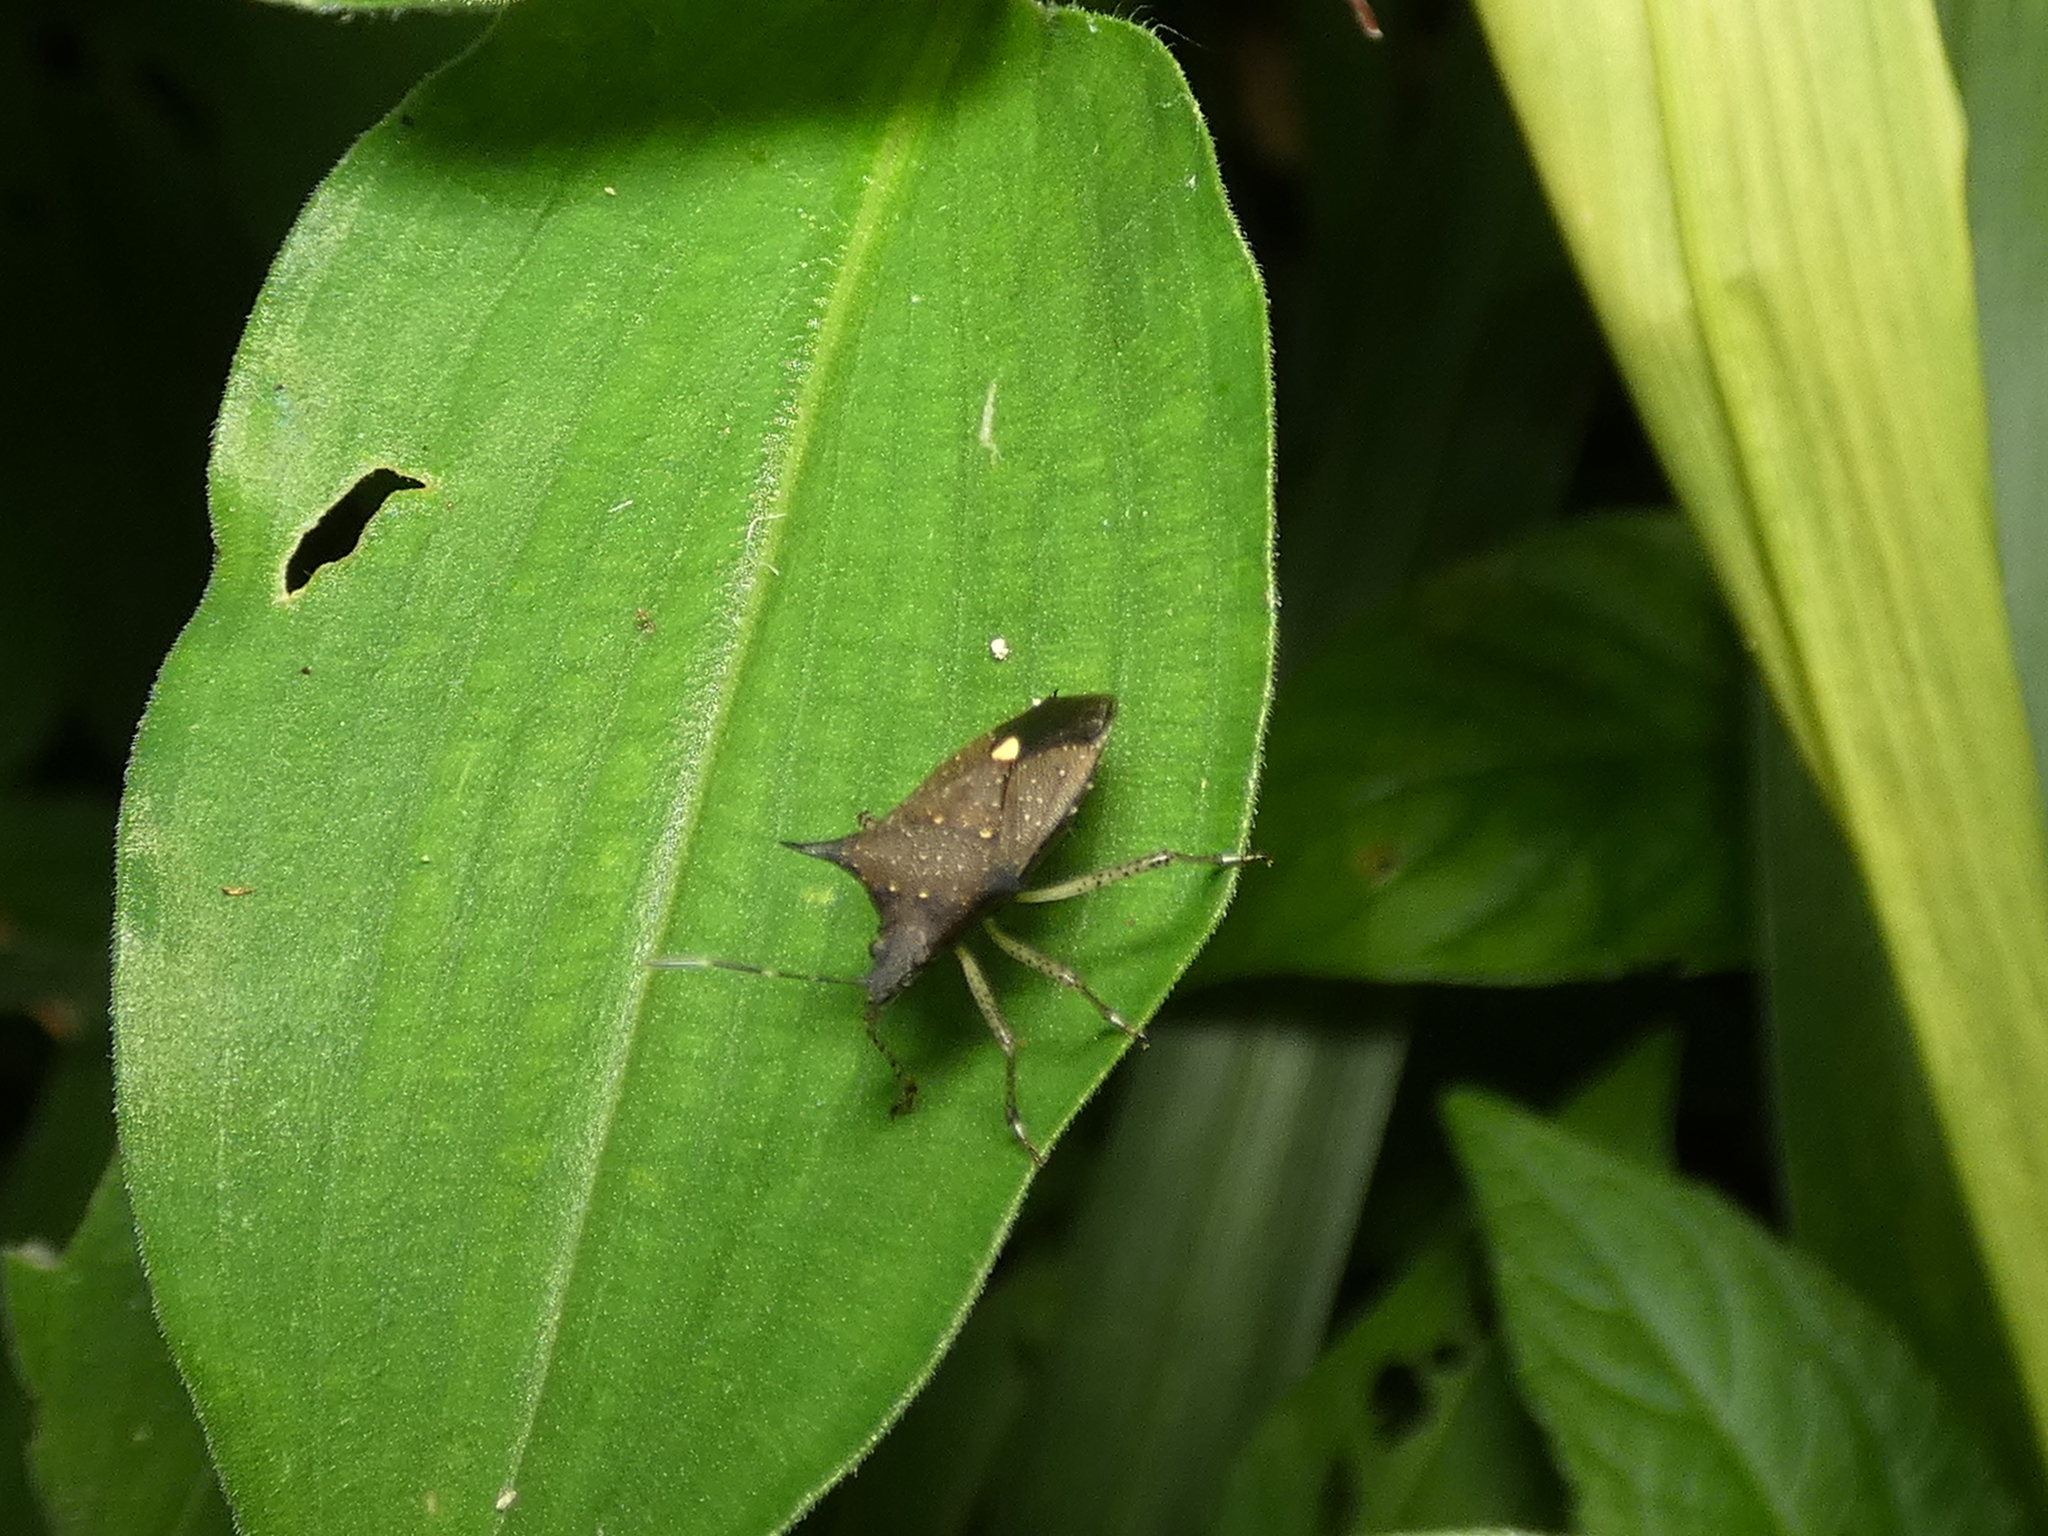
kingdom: Animalia
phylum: Arthropoda
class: Insecta
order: Hemiptera
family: Pentatomidae
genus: Proxys
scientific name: Proxys albopunctulatus
